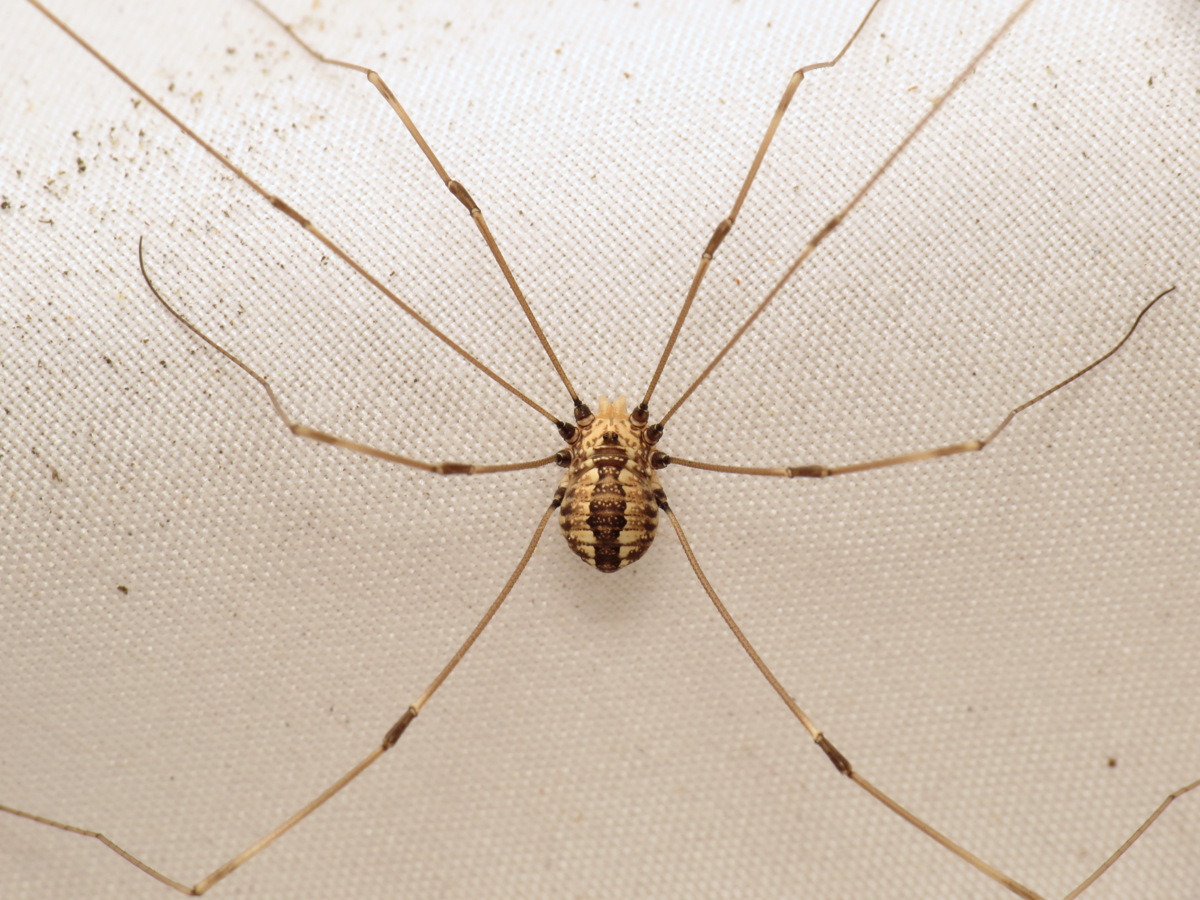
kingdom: Animalia
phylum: Arthropoda
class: Arachnida
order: Opiliones
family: Sclerosomatidae
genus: Leiobunum
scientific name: Leiobunum vittatum
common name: Eastern harvestman
